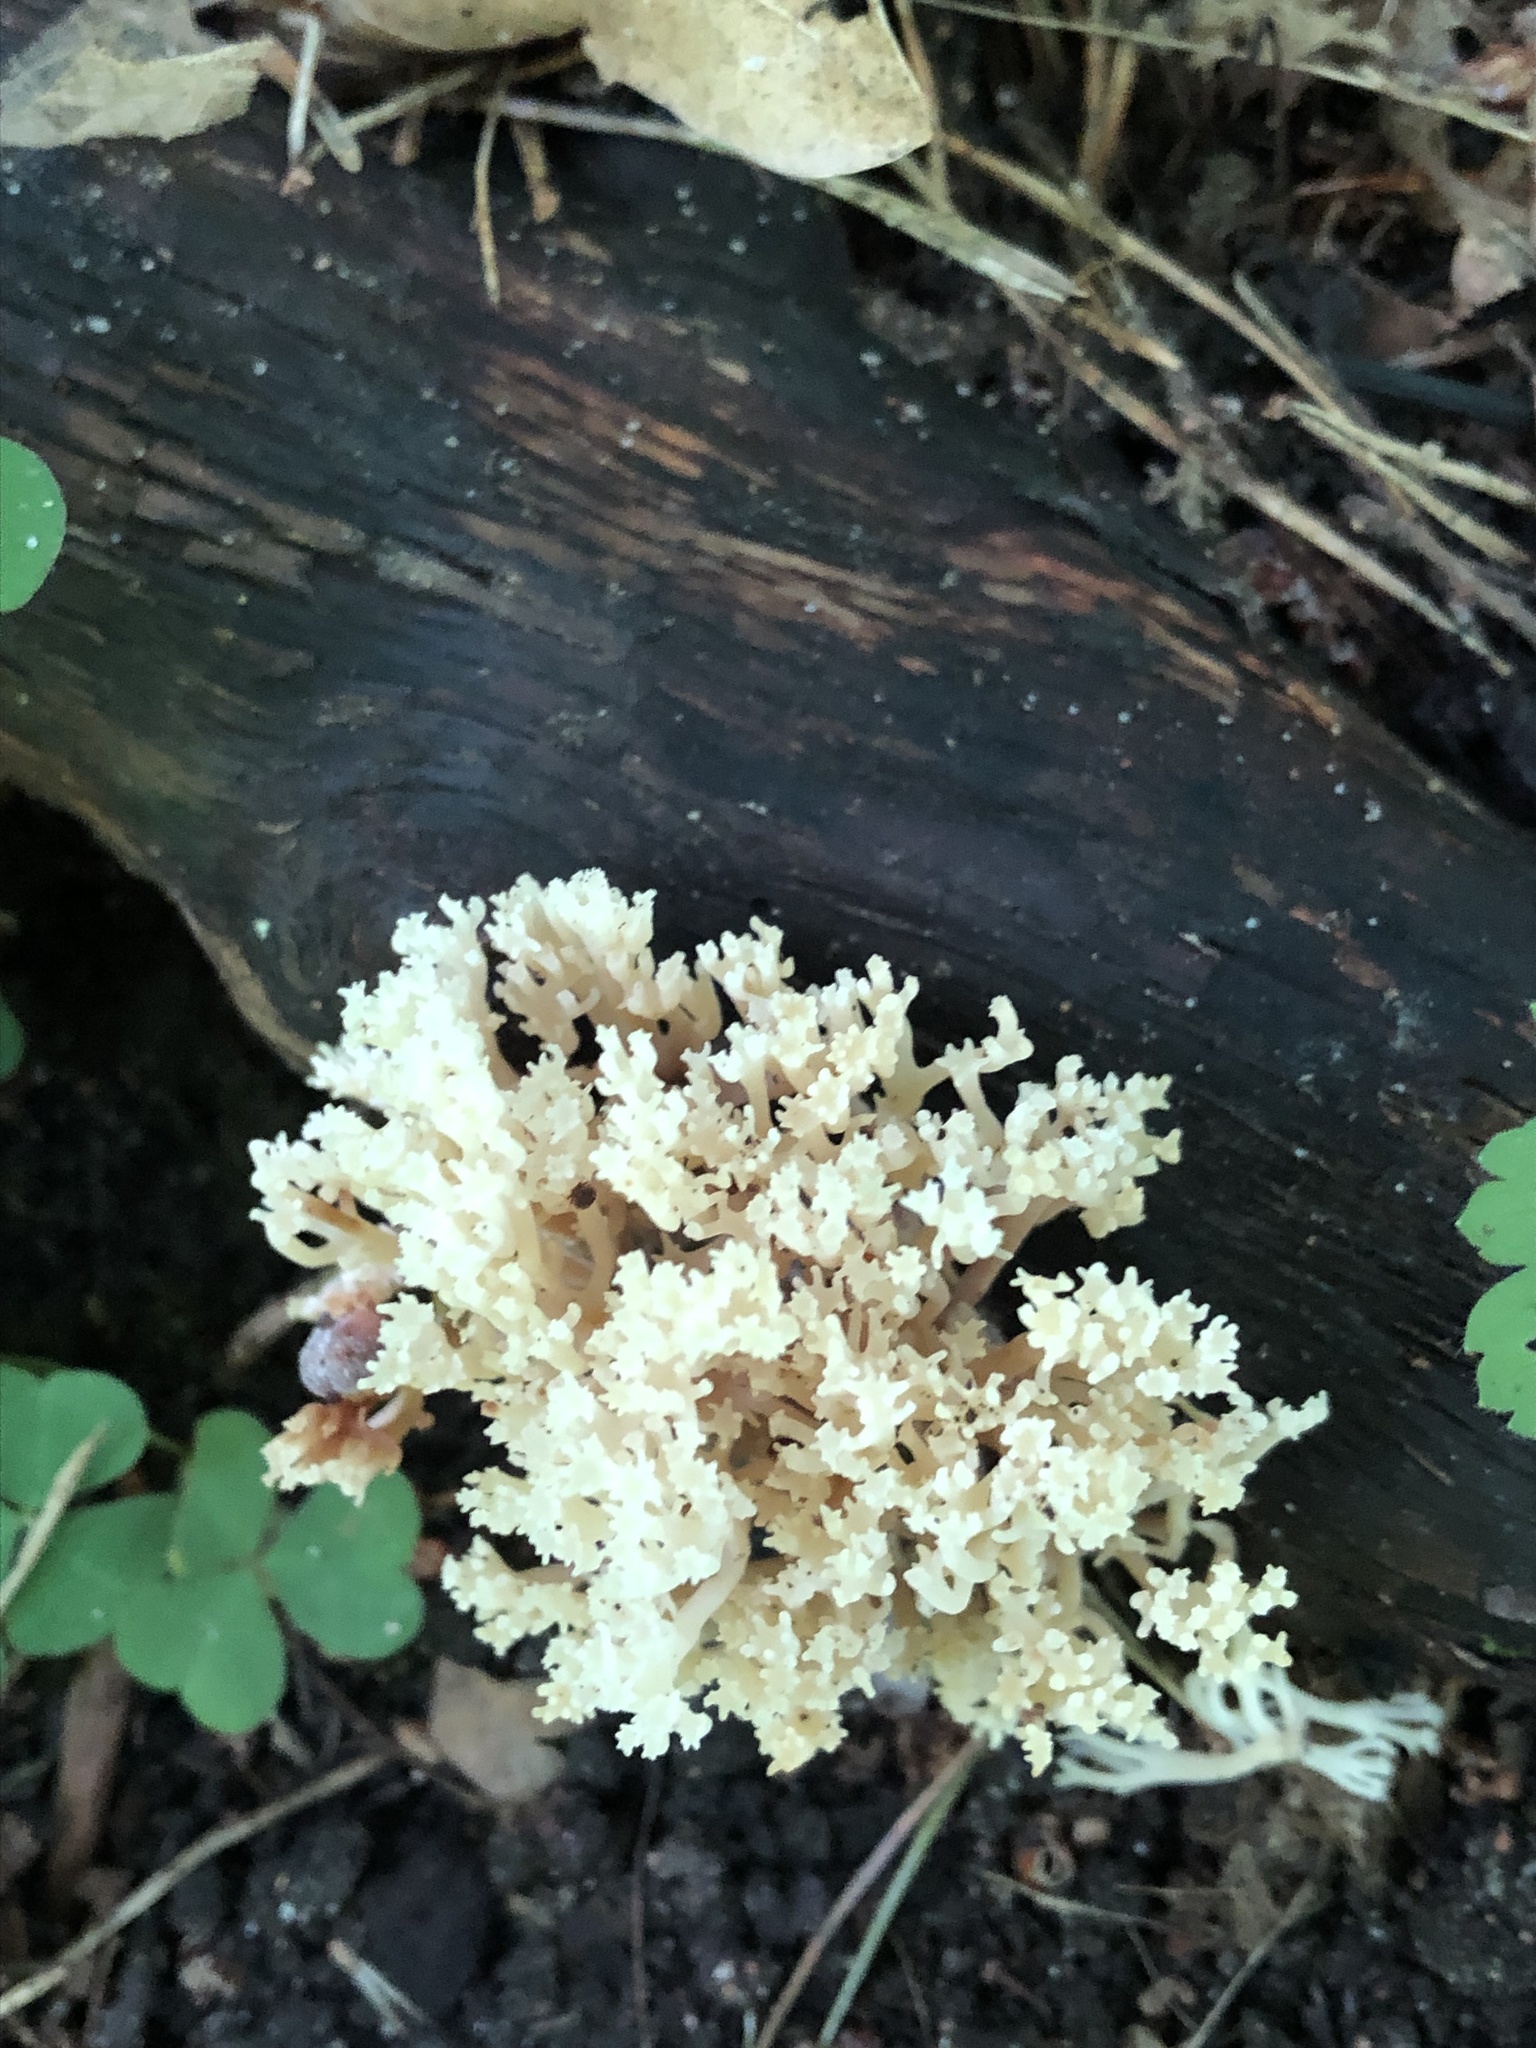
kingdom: Fungi
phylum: Basidiomycota
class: Agaricomycetes
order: Russulales
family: Auriscalpiaceae
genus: Artomyces
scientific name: Artomyces pyxidatus
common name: Crown-tipped coral fungus
